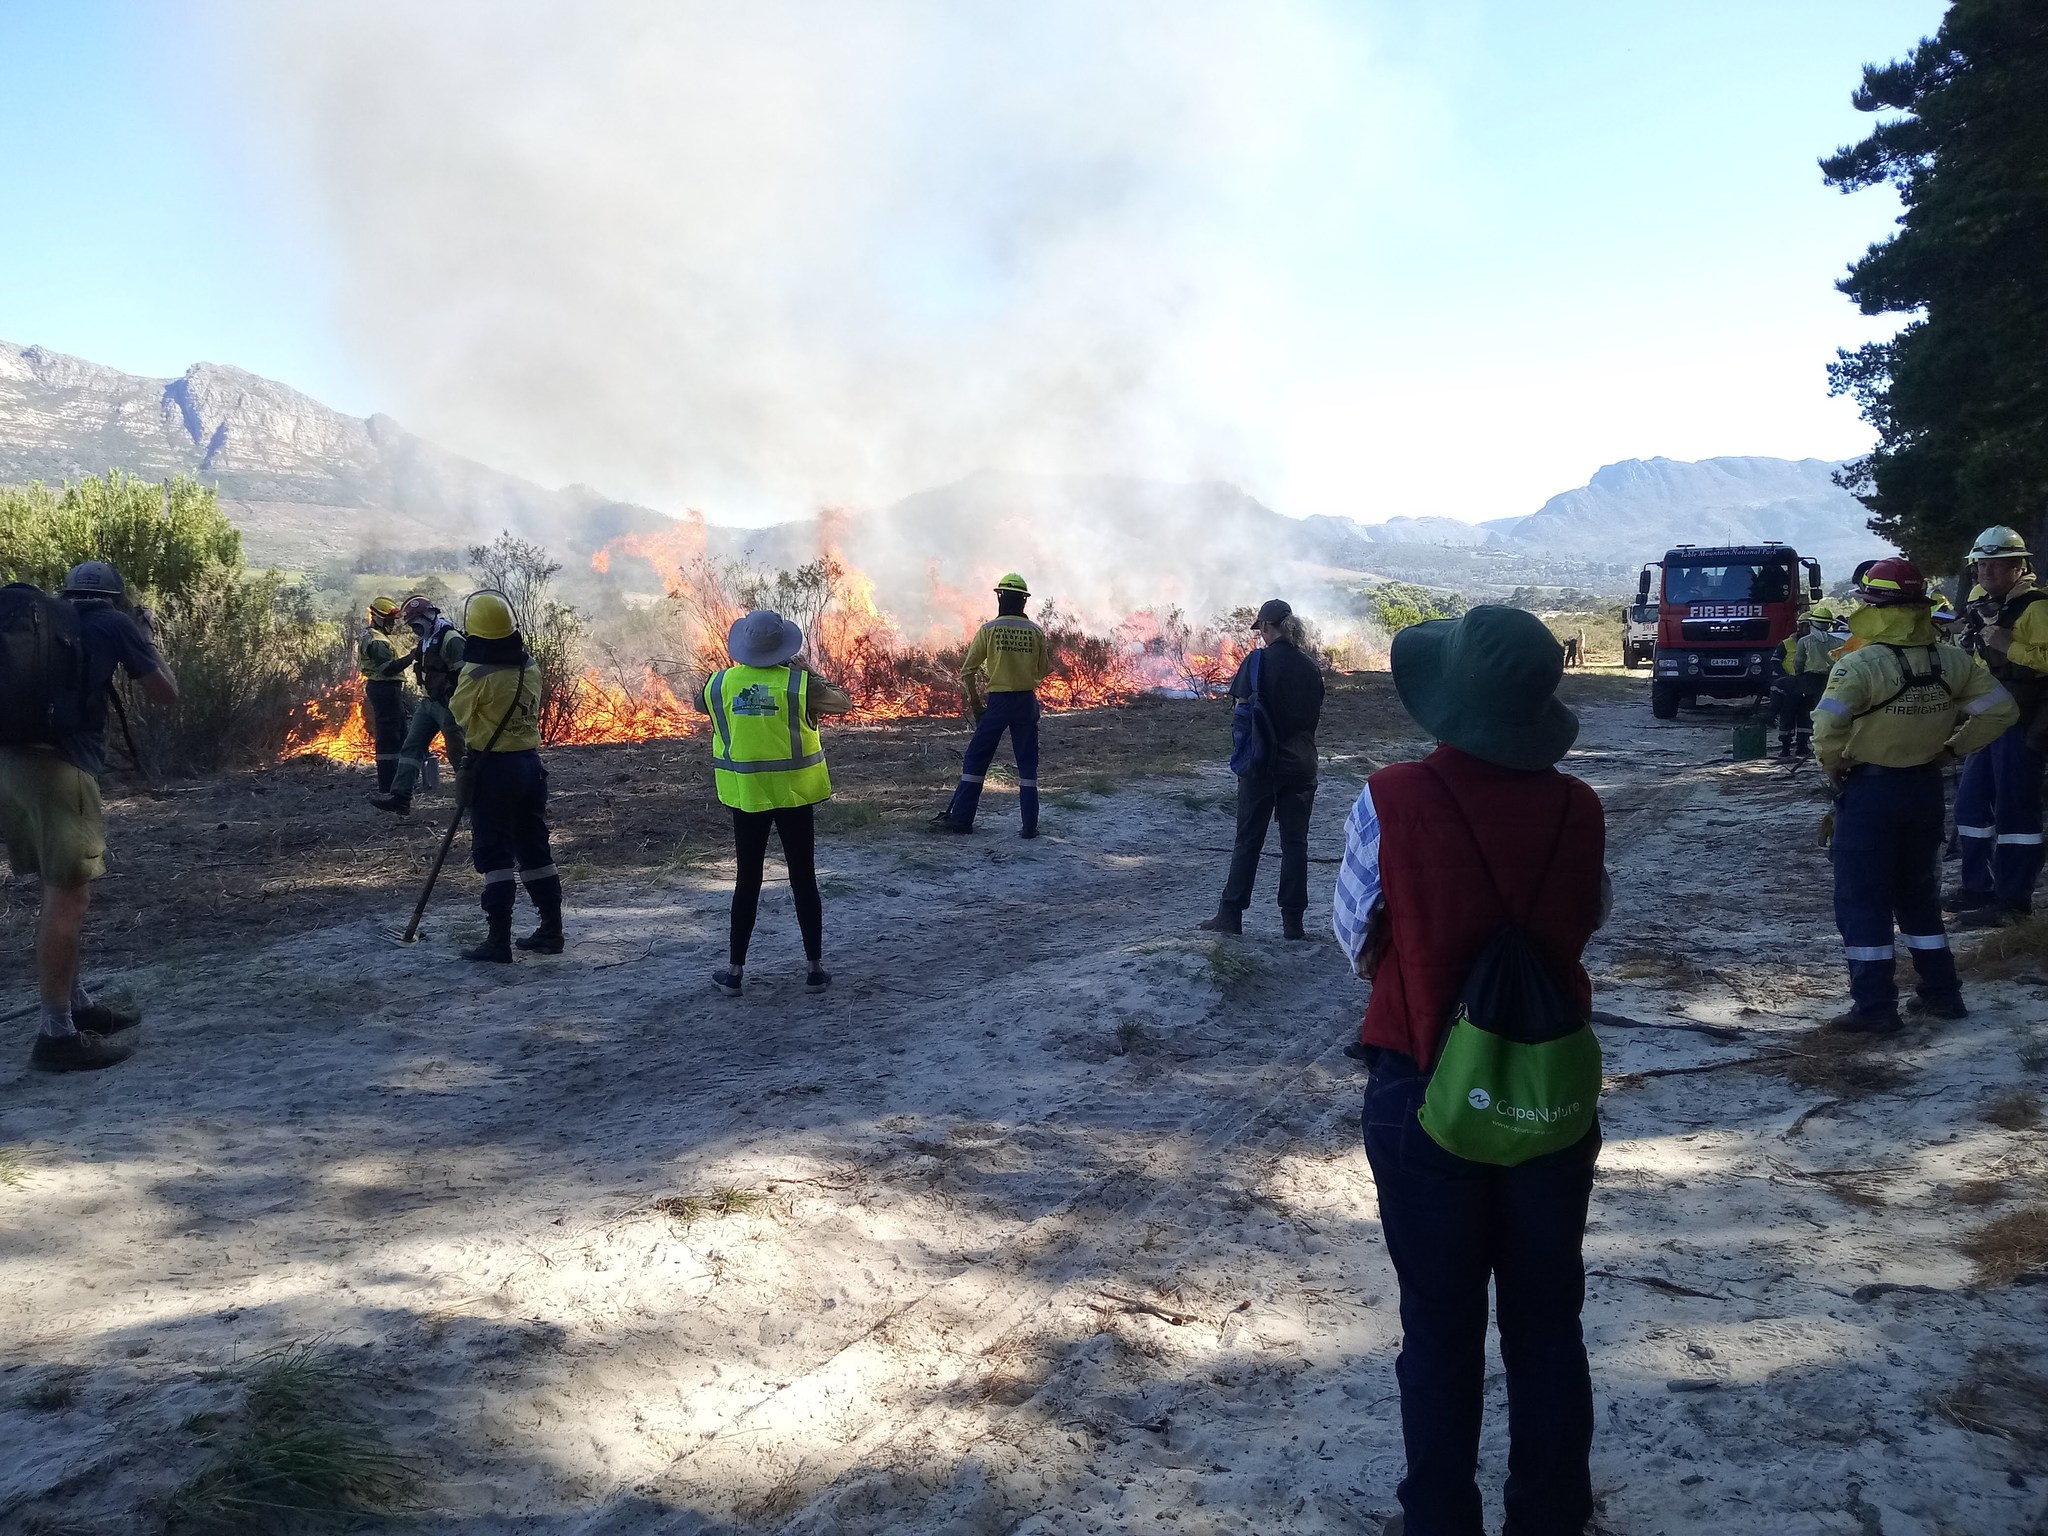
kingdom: Plantae
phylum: Tracheophyta
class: Magnoliopsida
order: Proteales
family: Proteaceae
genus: Protea
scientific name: Protea repens
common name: Sugarbush
